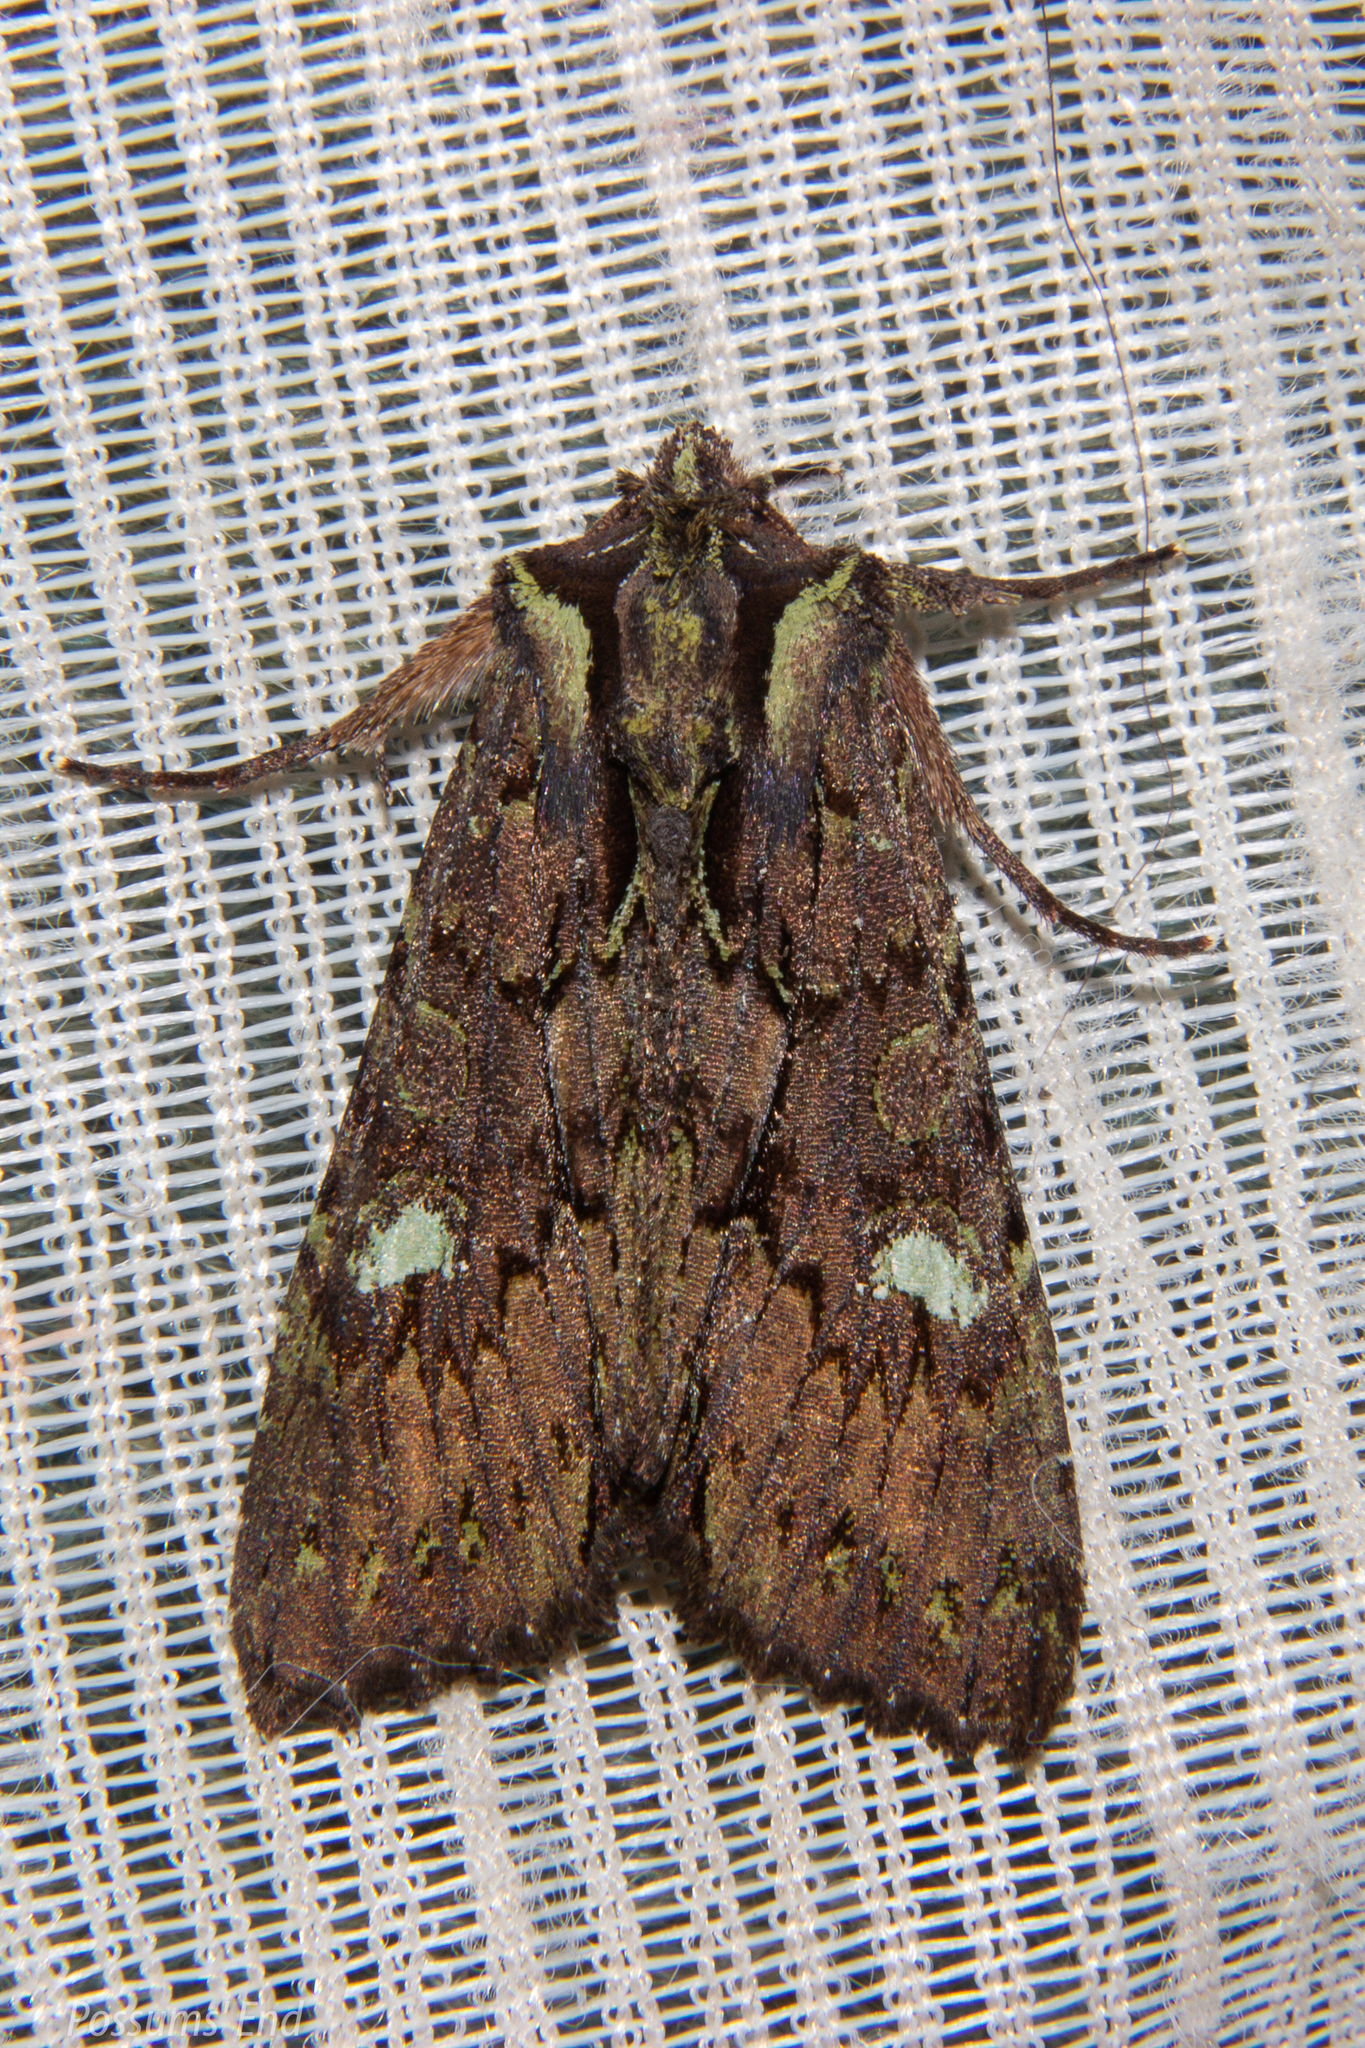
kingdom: Animalia
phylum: Arthropoda
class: Insecta
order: Lepidoptera
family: Noctuidae
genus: Meterana
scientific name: Meterana diatmeta
